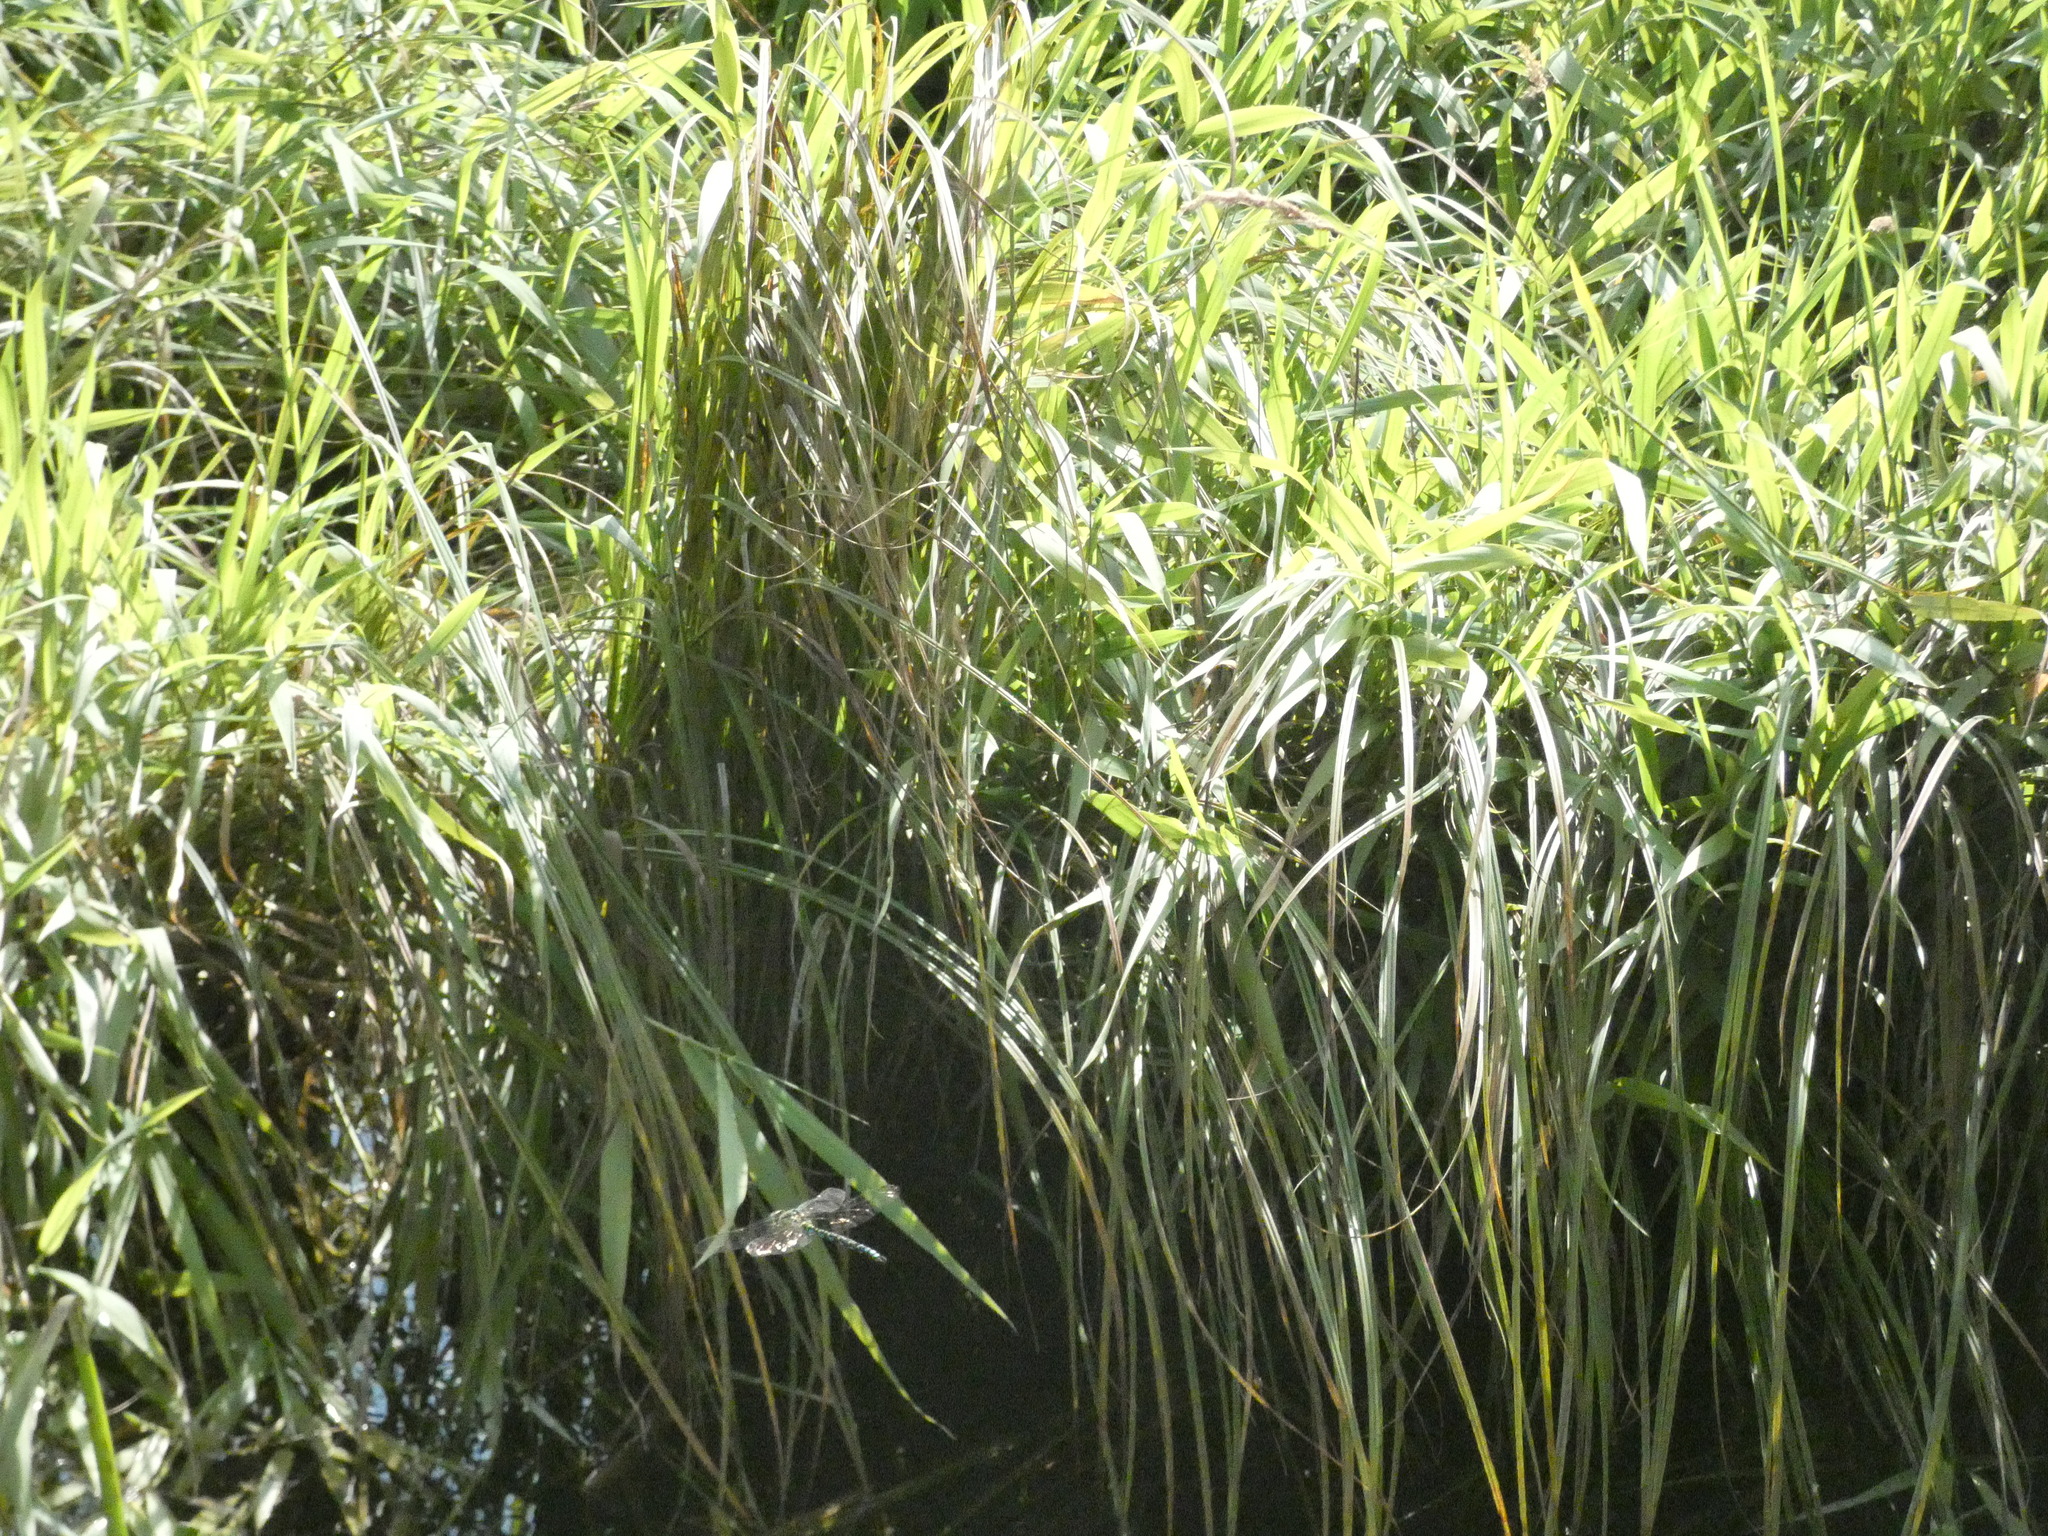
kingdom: Animalia
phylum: Arthropoda
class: Insecta
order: Odonata
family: Aeshnidae
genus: Aeshna
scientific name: Aeshna cyanea
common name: Southern hawker
